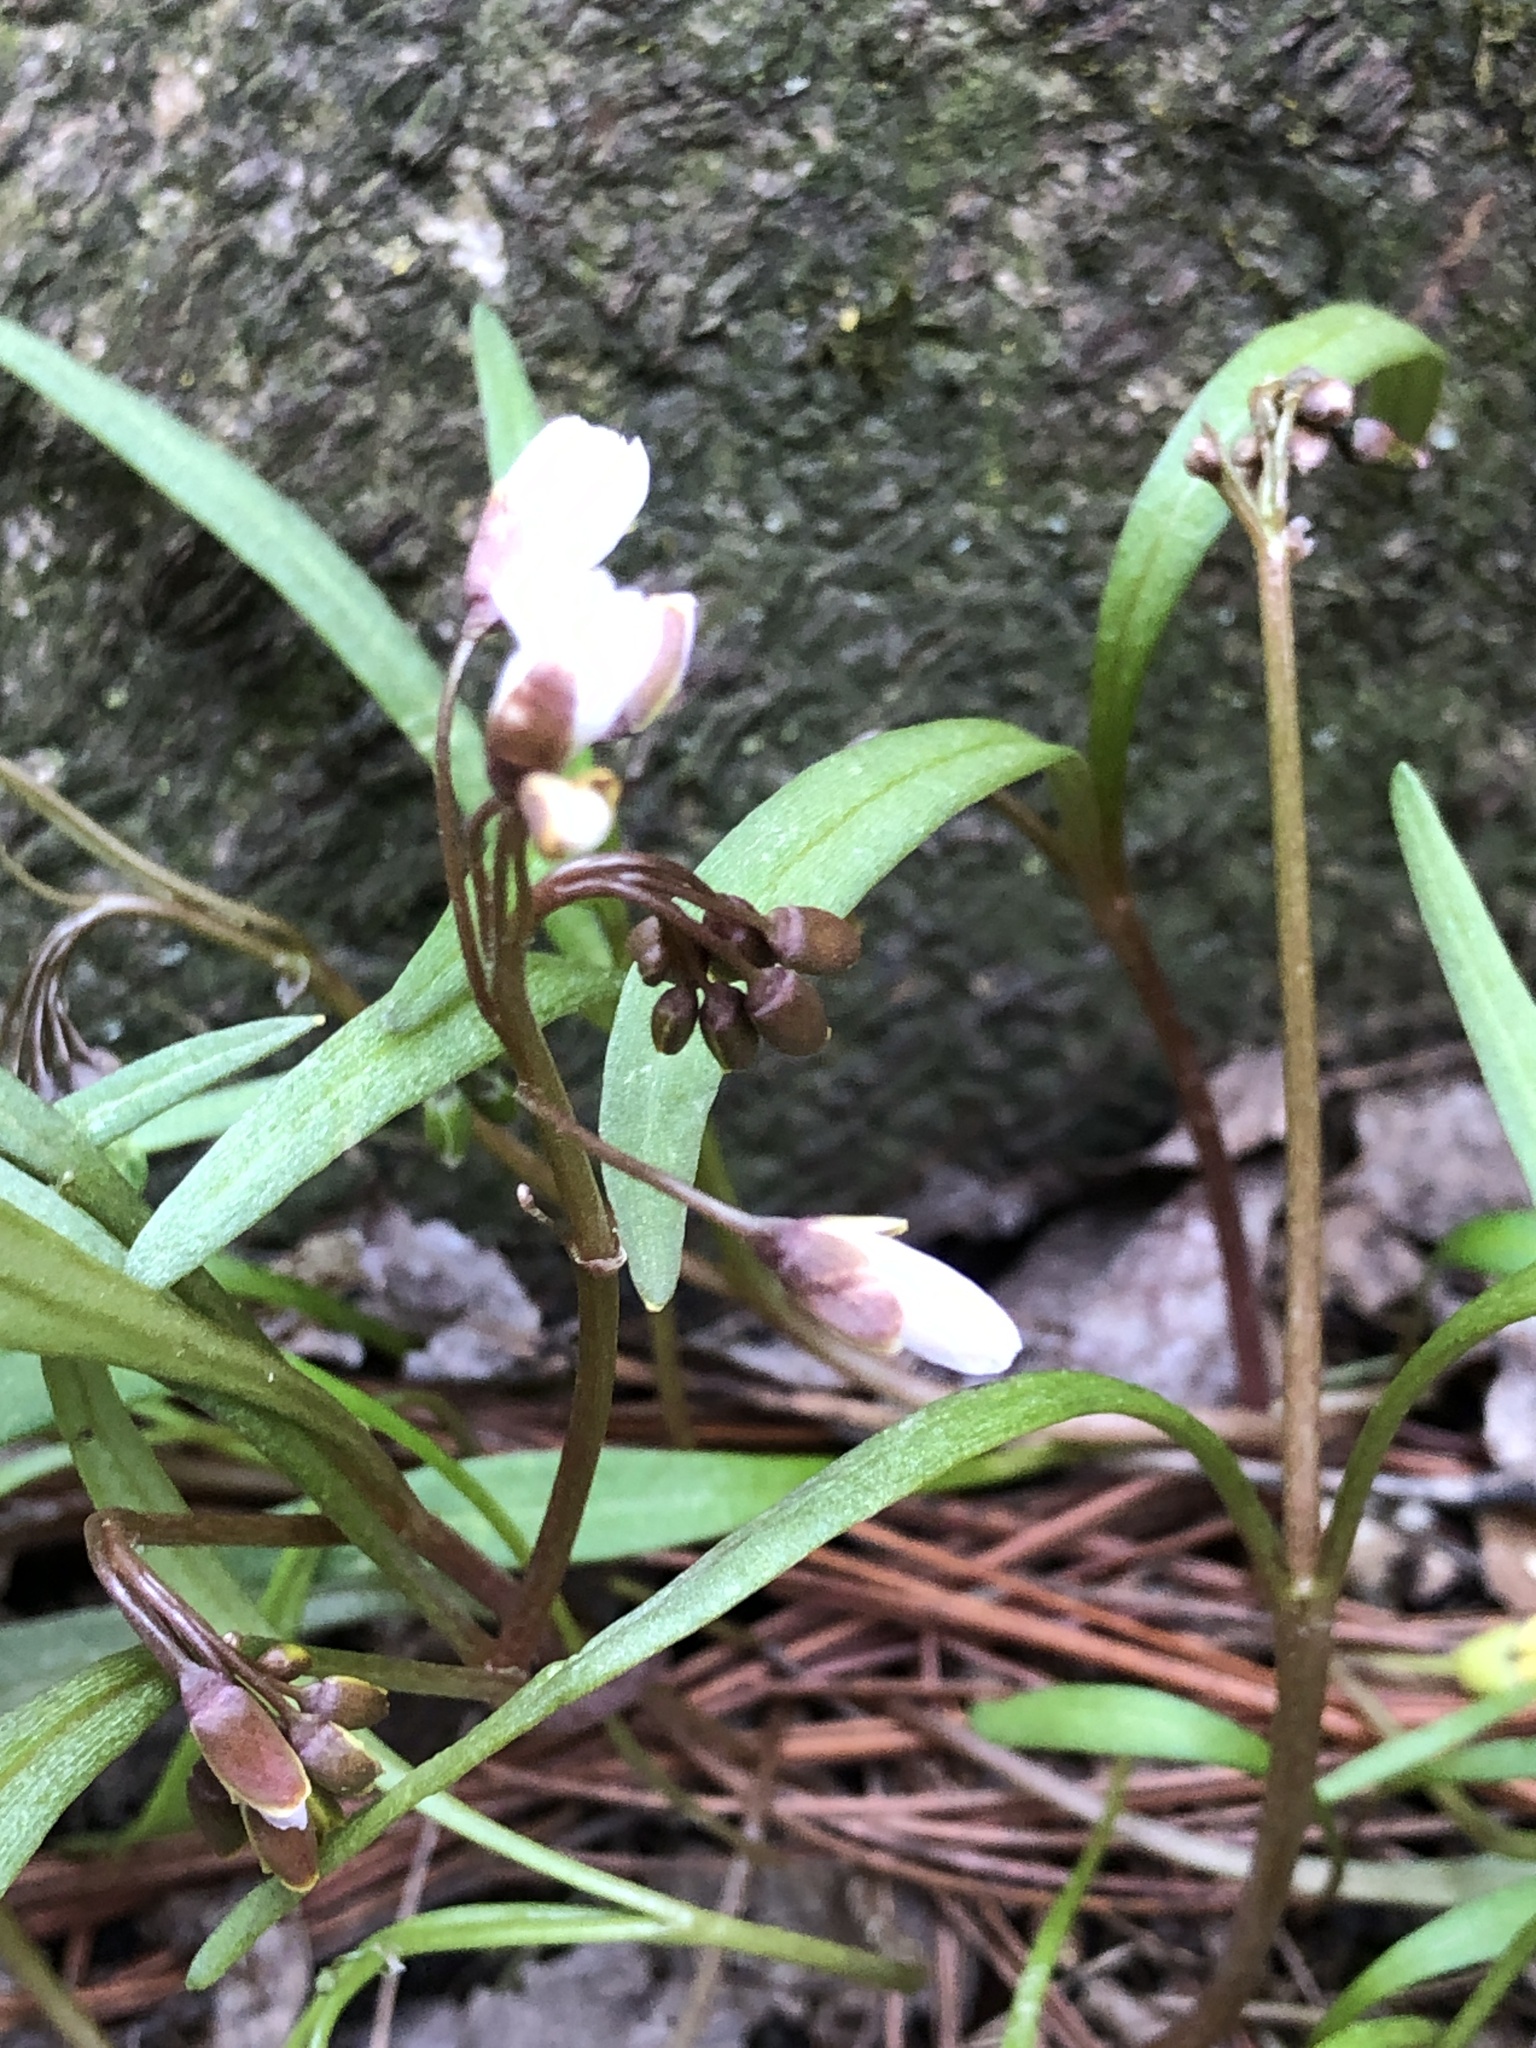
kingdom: Plantae
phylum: Tracheophyta
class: Magnoliopsida
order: Caryophyllales
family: Montiaceae
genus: Claytonia
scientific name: Claytonia virginica
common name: Virginia springbeauty
